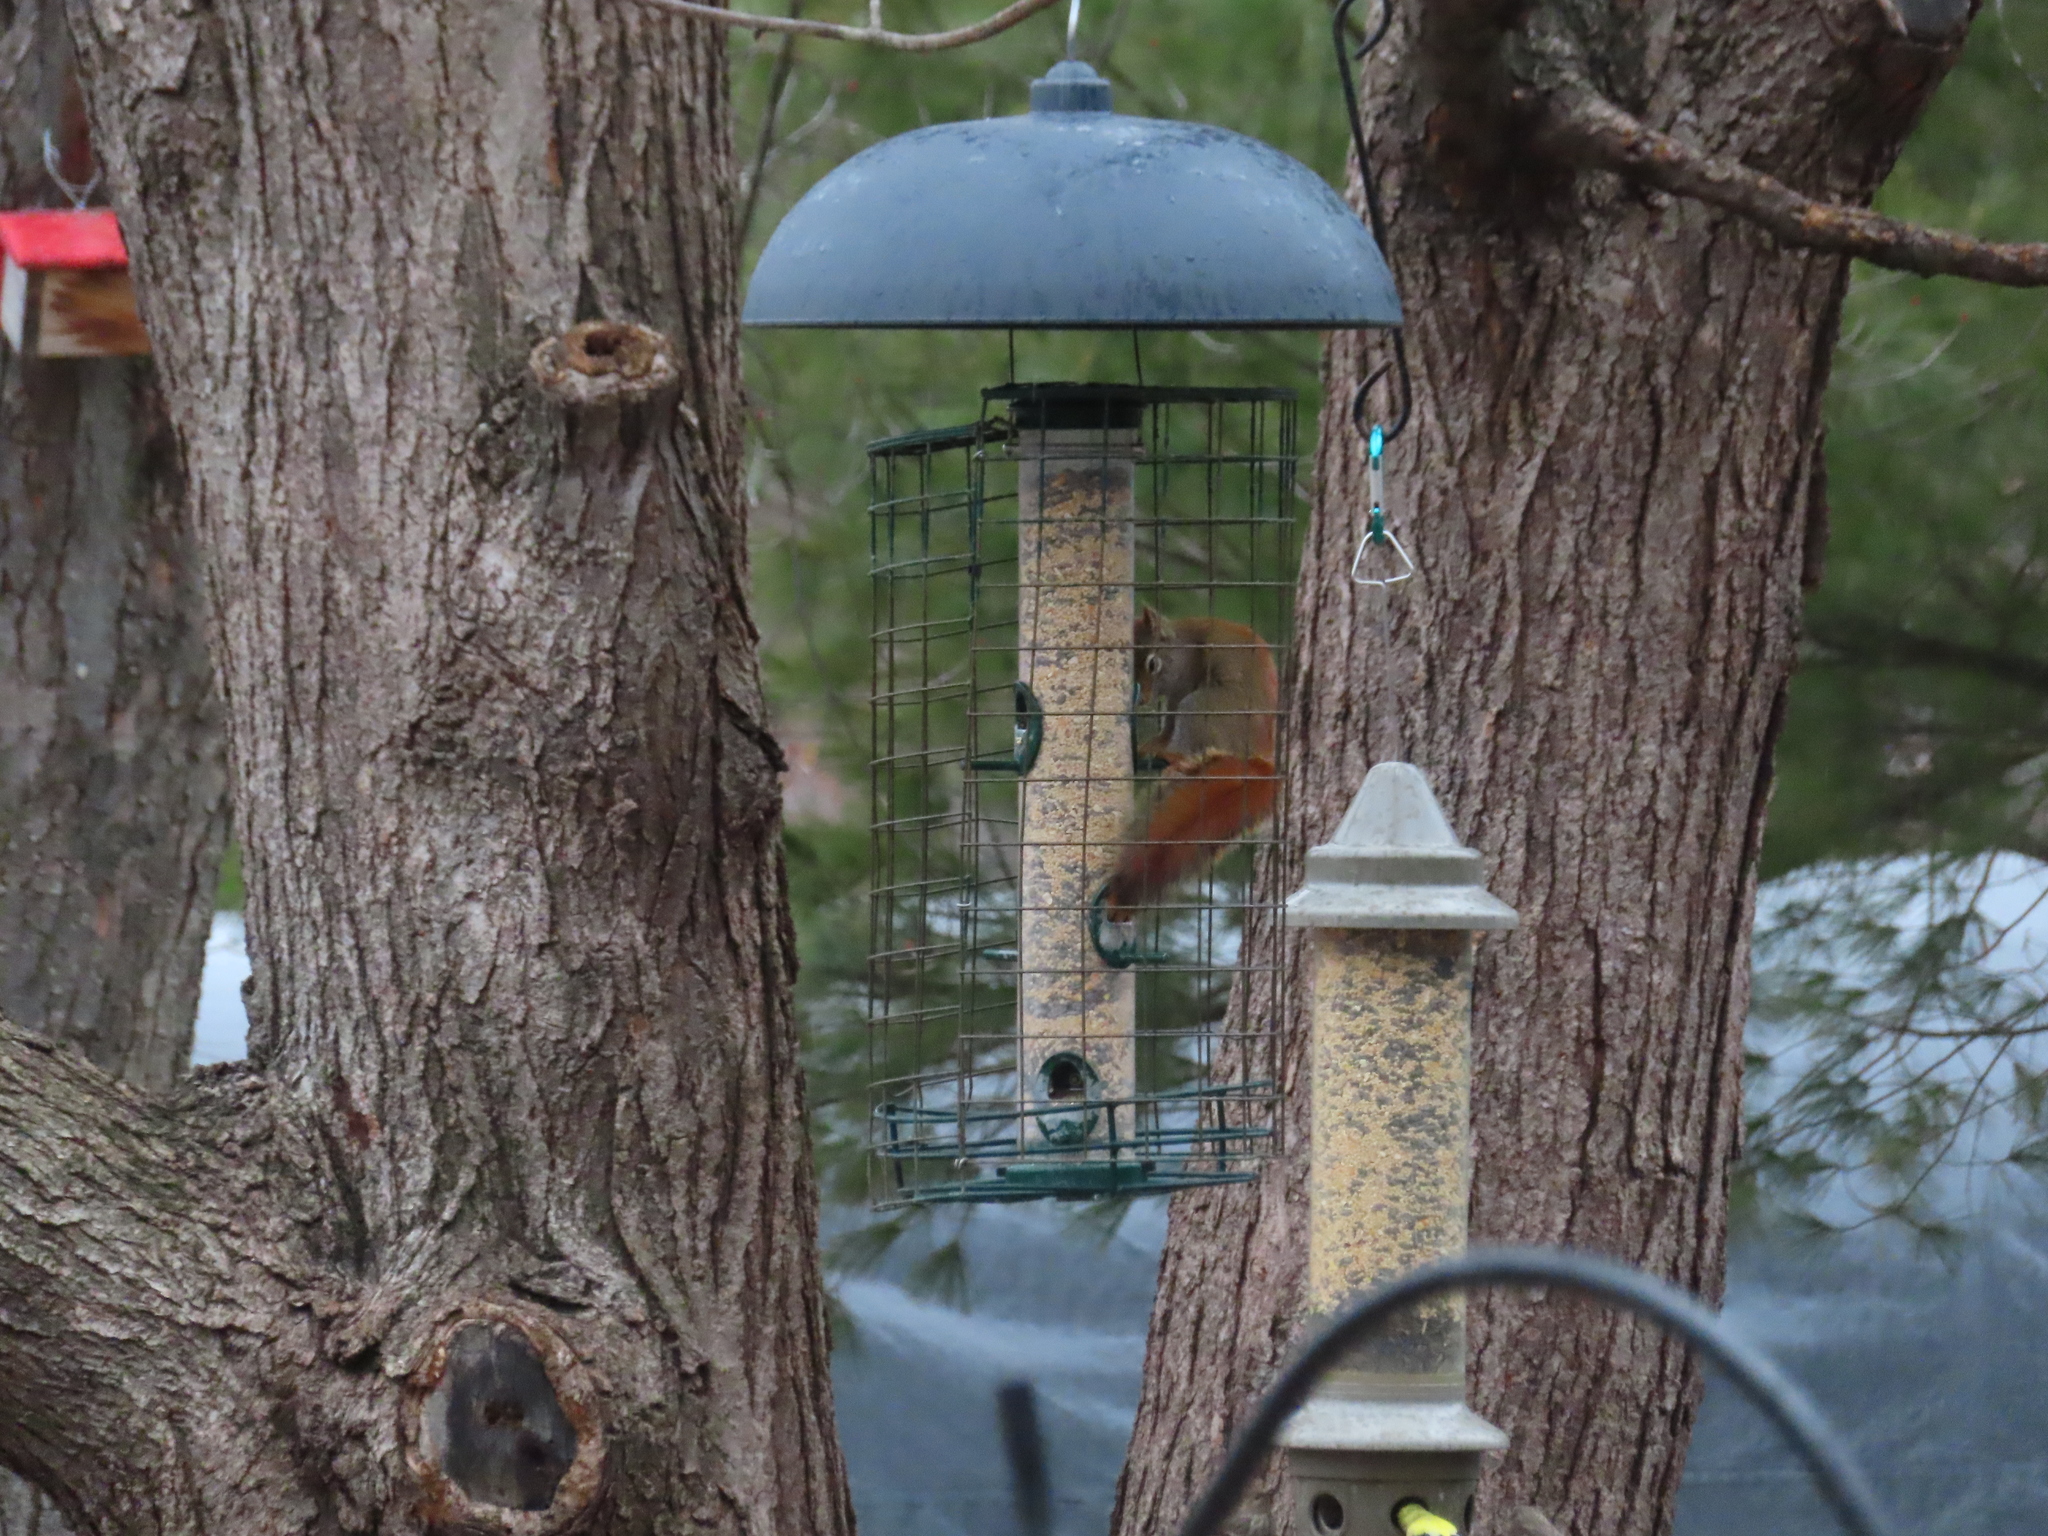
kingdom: Animalia
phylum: Chordata
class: Mammalia
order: Rodentia
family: Sciuridae
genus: Tamiasciurus
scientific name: Tamiasciurus hudsonicus
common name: Red squirrel
